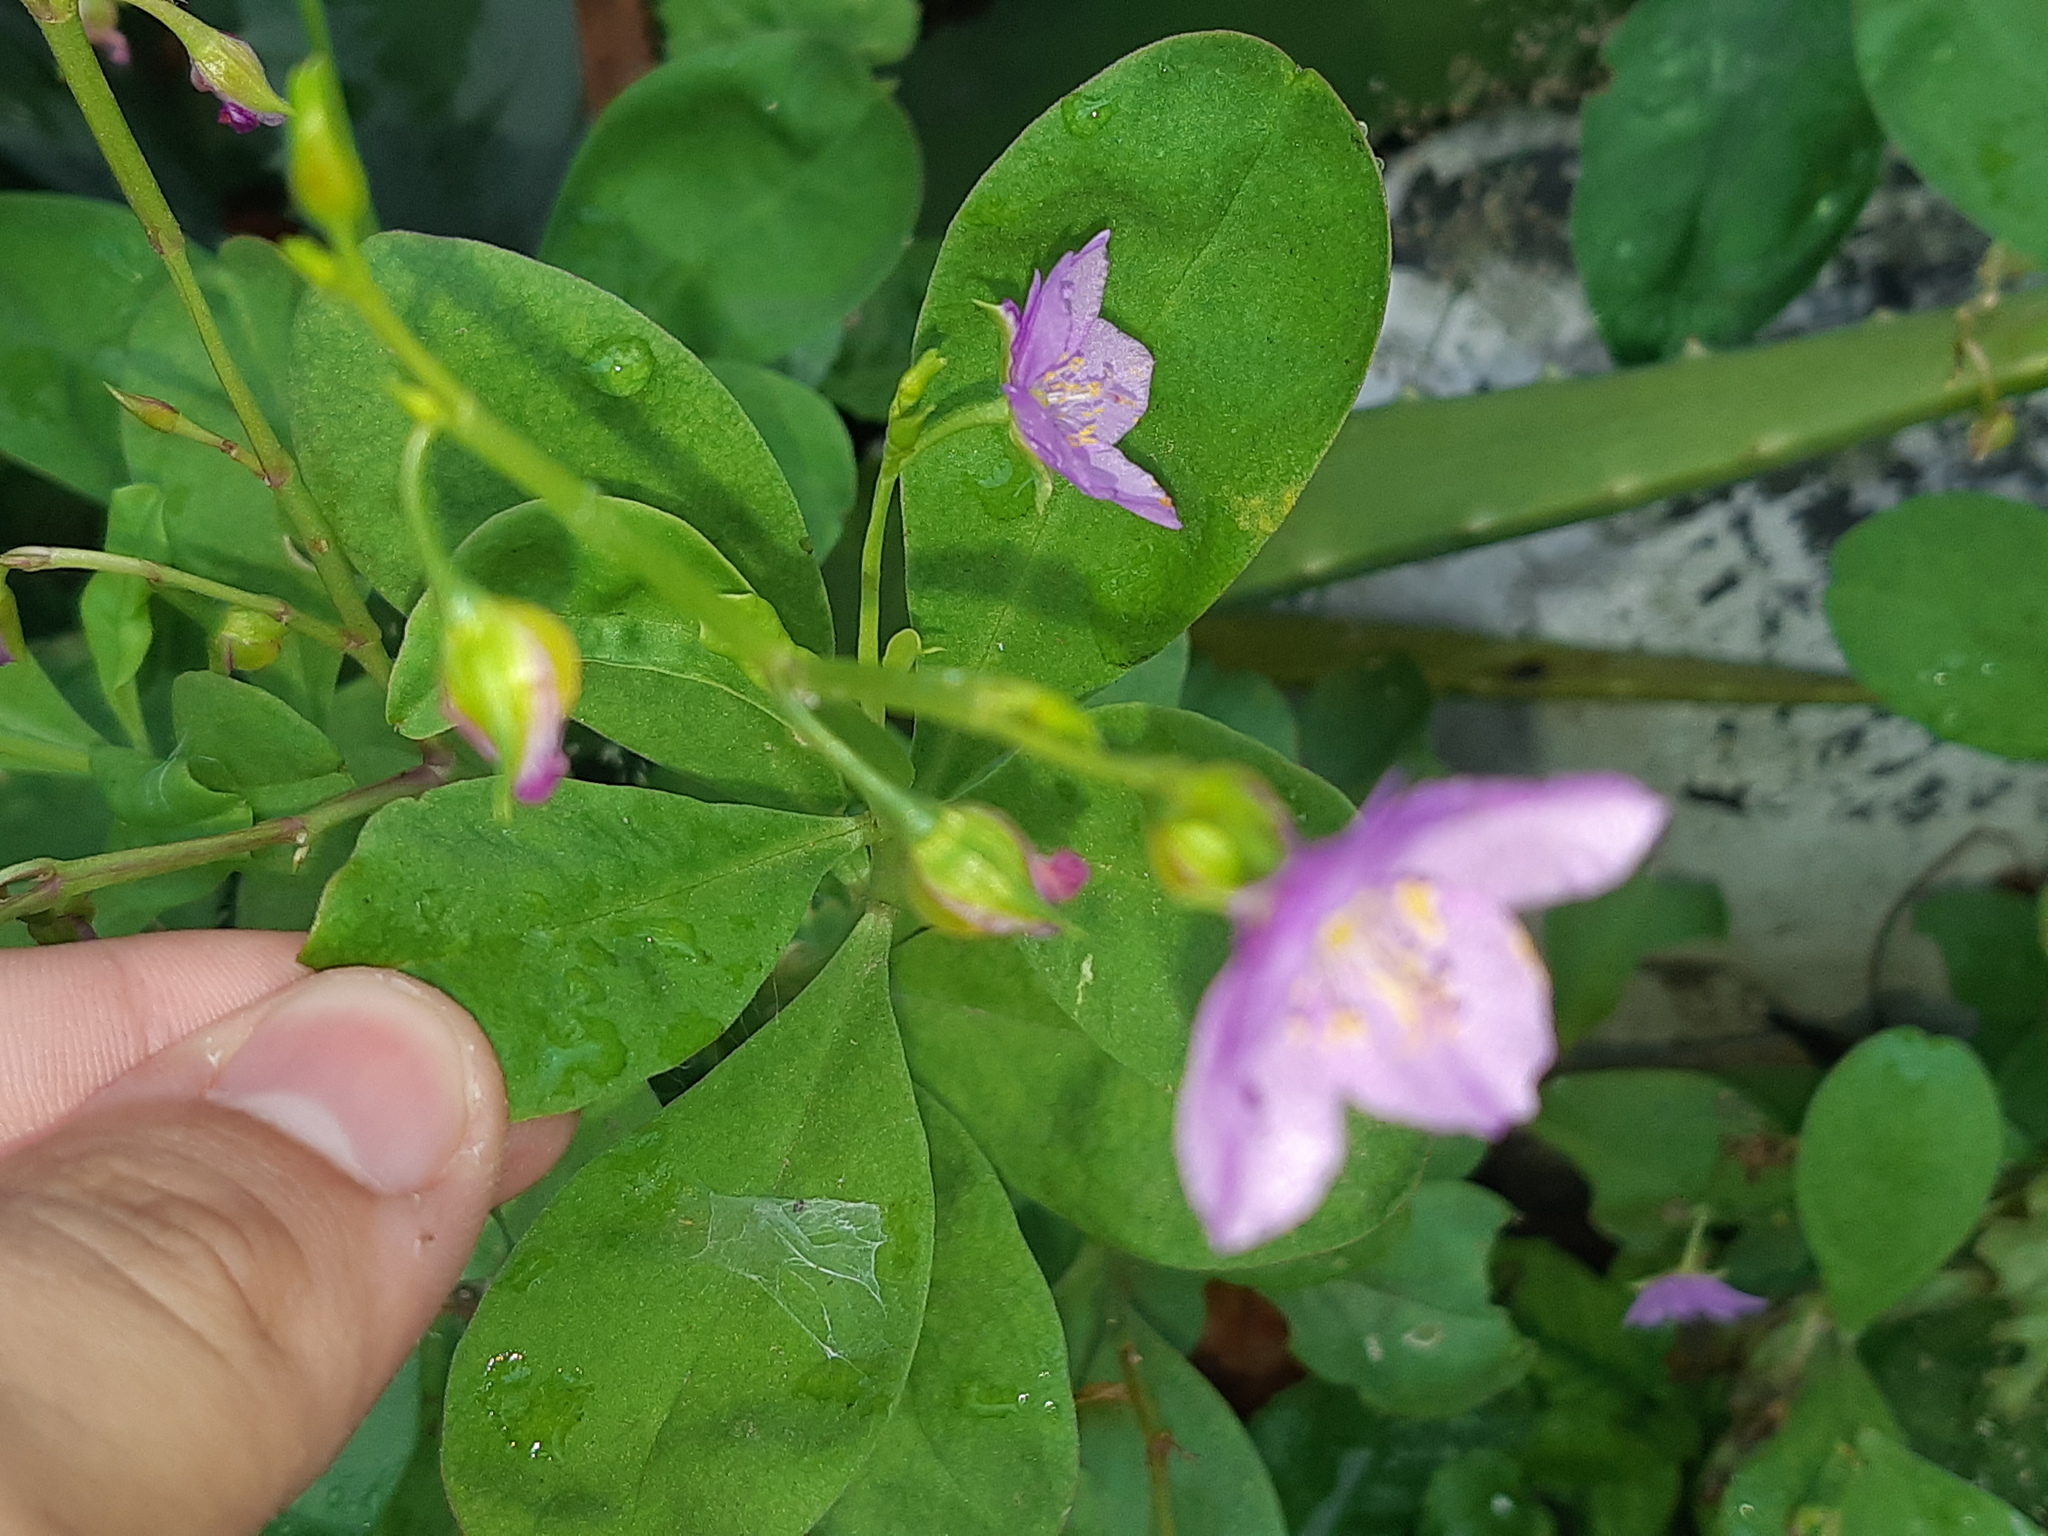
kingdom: Plantae
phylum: Tracheophyta
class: Magnoliopsida
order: Caryophyllales
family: Talinaceae
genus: Talinum
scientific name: Talinum fruticosum
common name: Verdolaga-francesa
